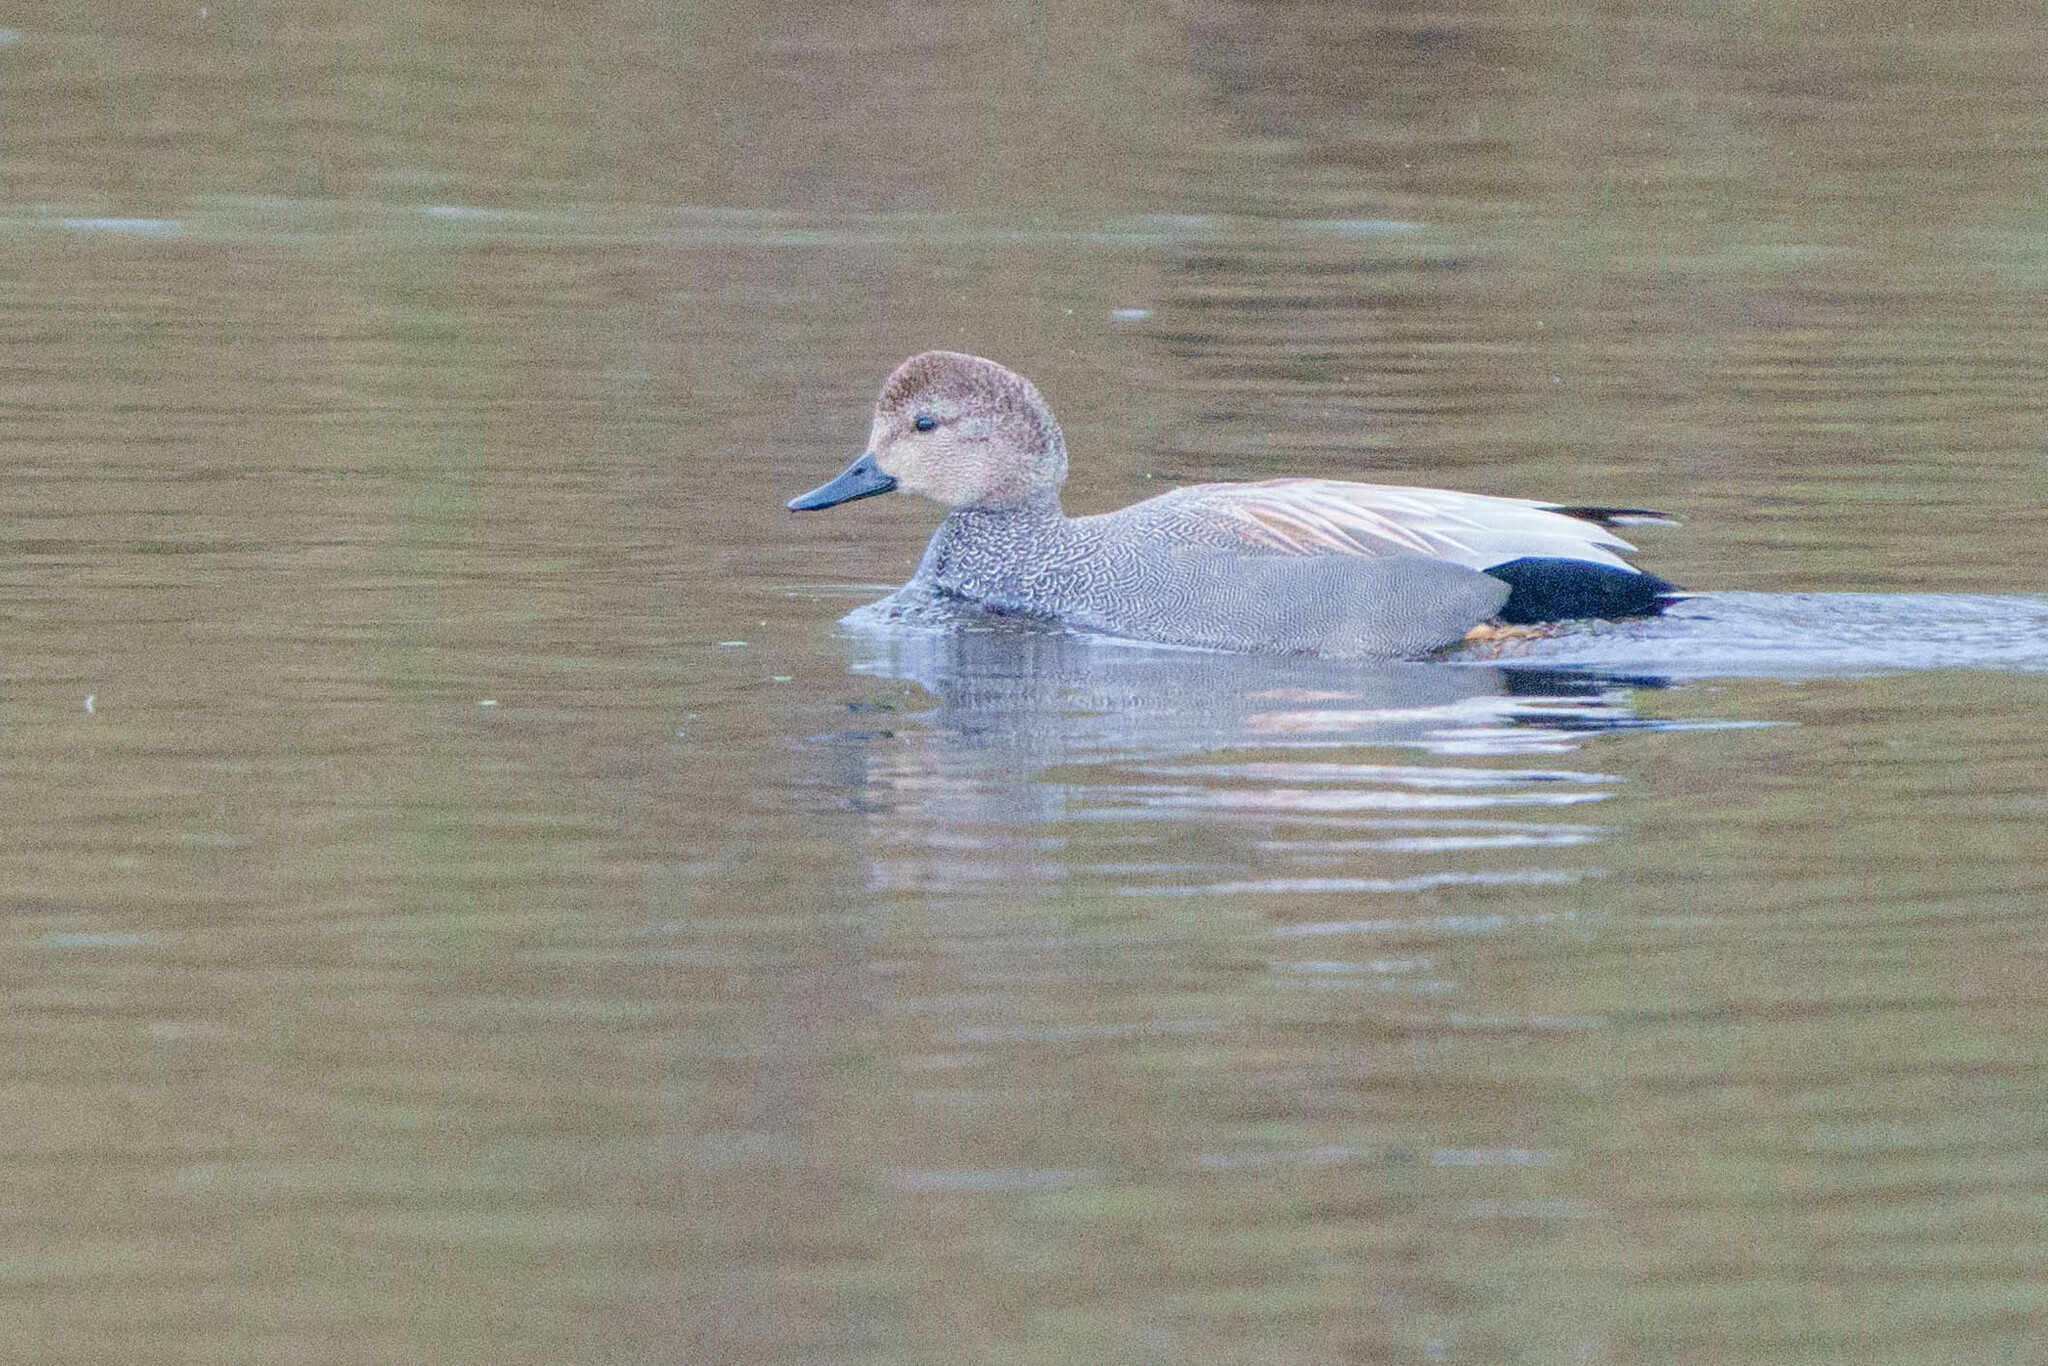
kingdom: Animalia
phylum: Chordata
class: Aves
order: Anseriformes
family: Anatidae
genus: Mareca
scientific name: Mareca strepera
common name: Gadwall
